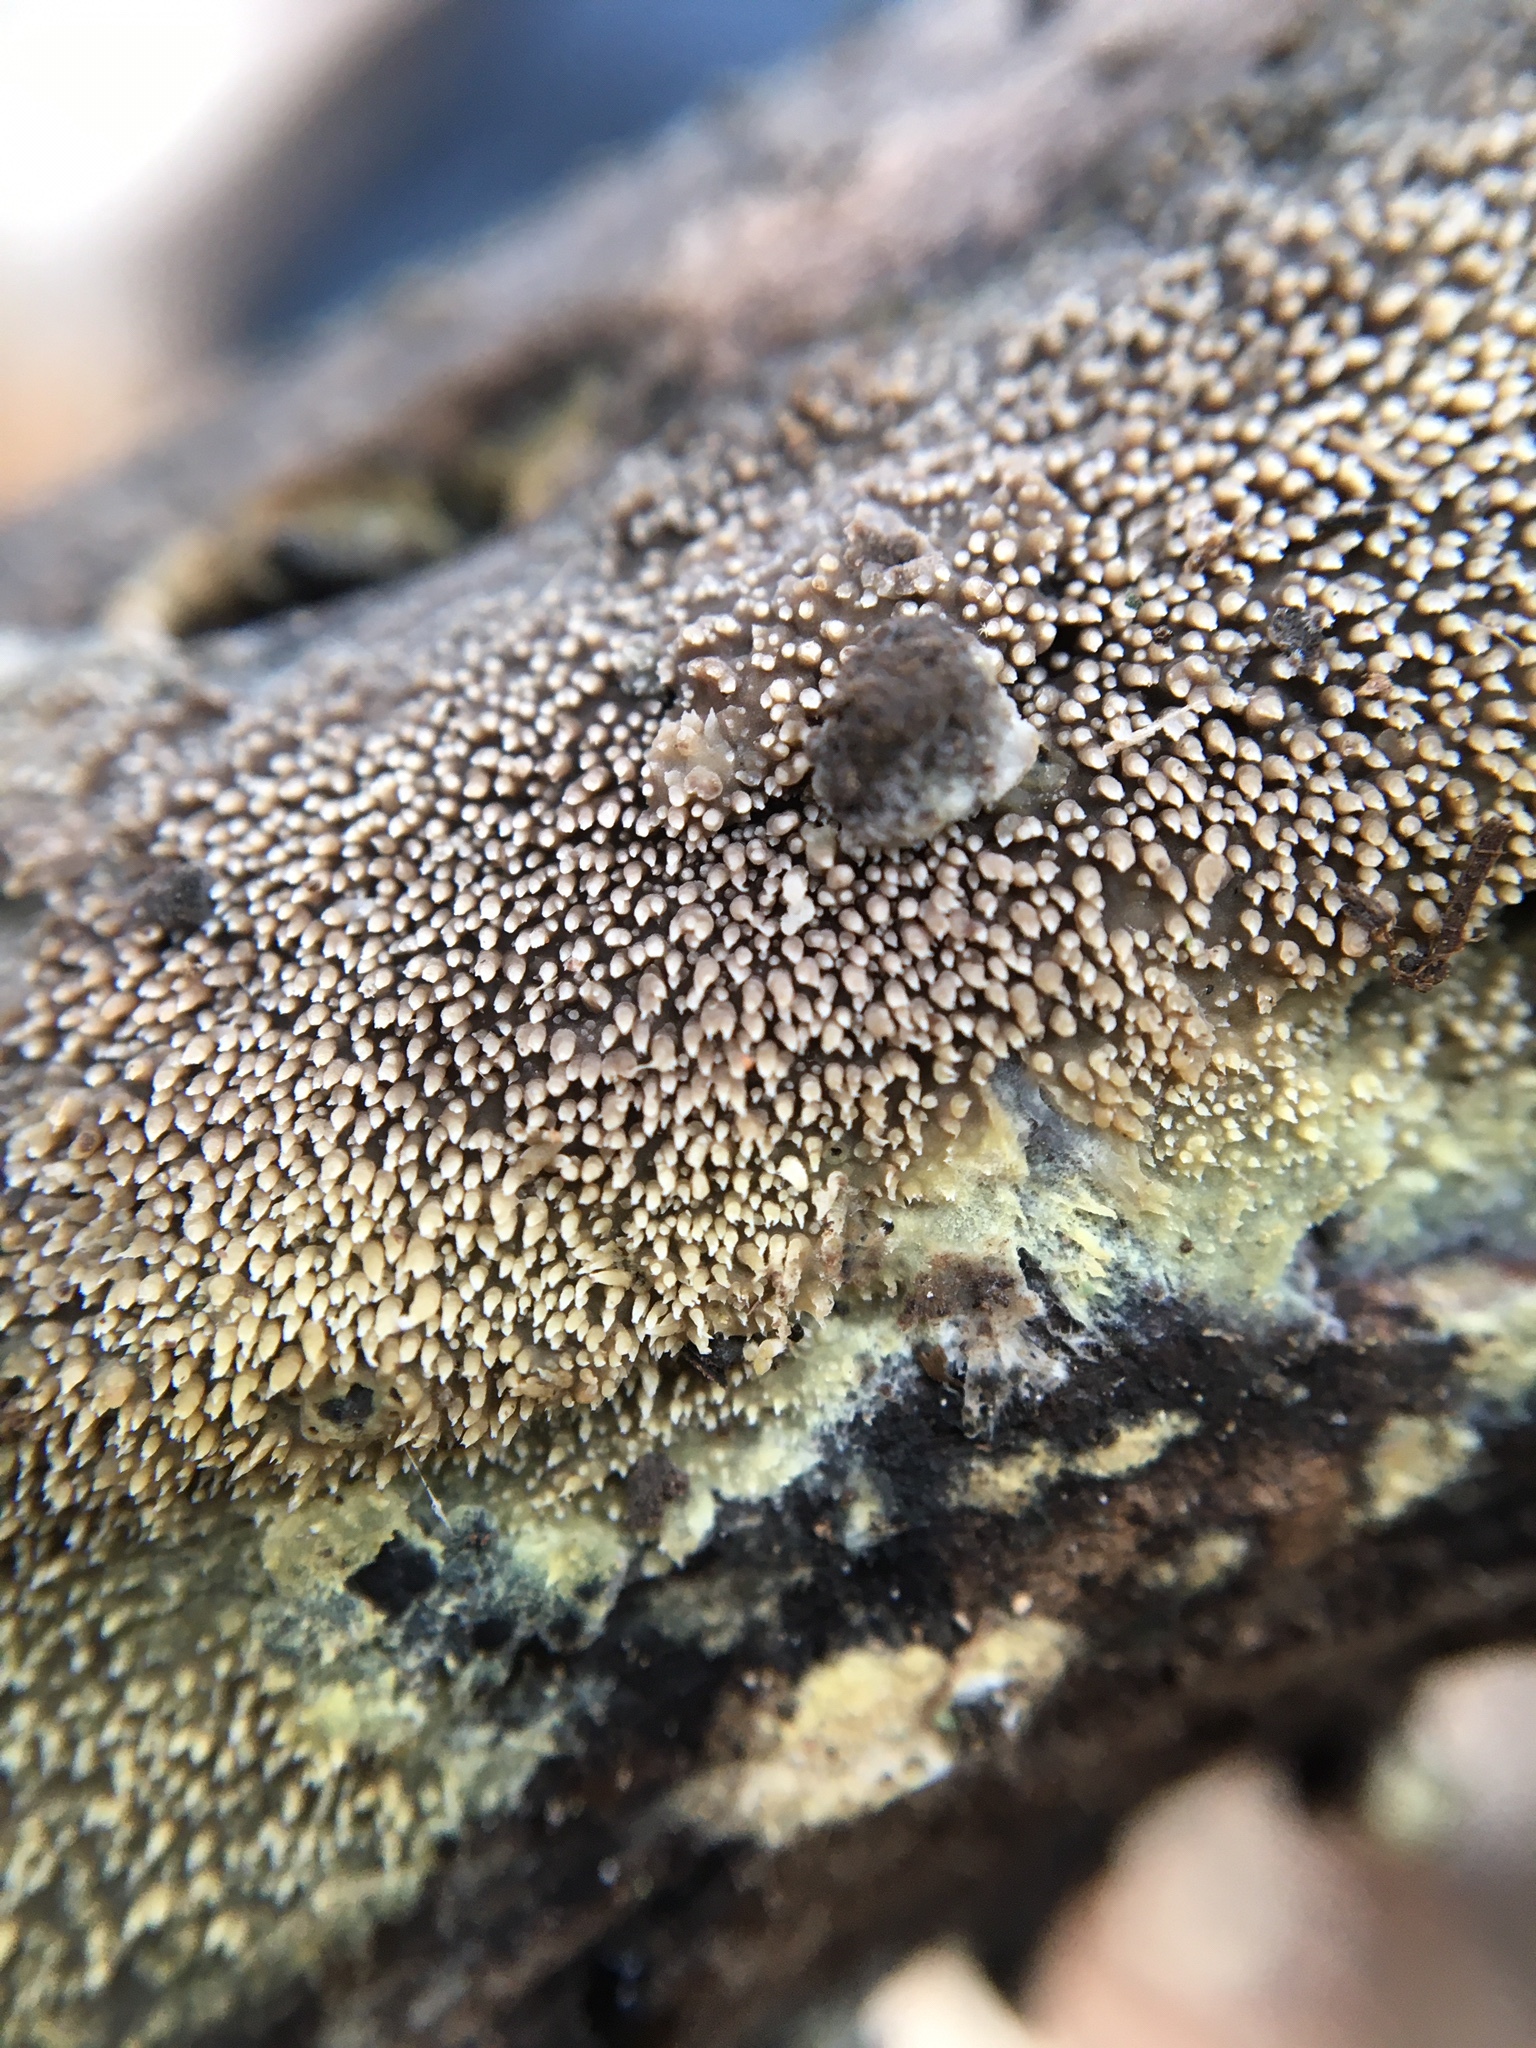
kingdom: Fungi
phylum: Basidiomycota
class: Agaricomycetes
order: Polyporales
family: Meruliaceae
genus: Mycoacia
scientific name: Mycoacia uda
